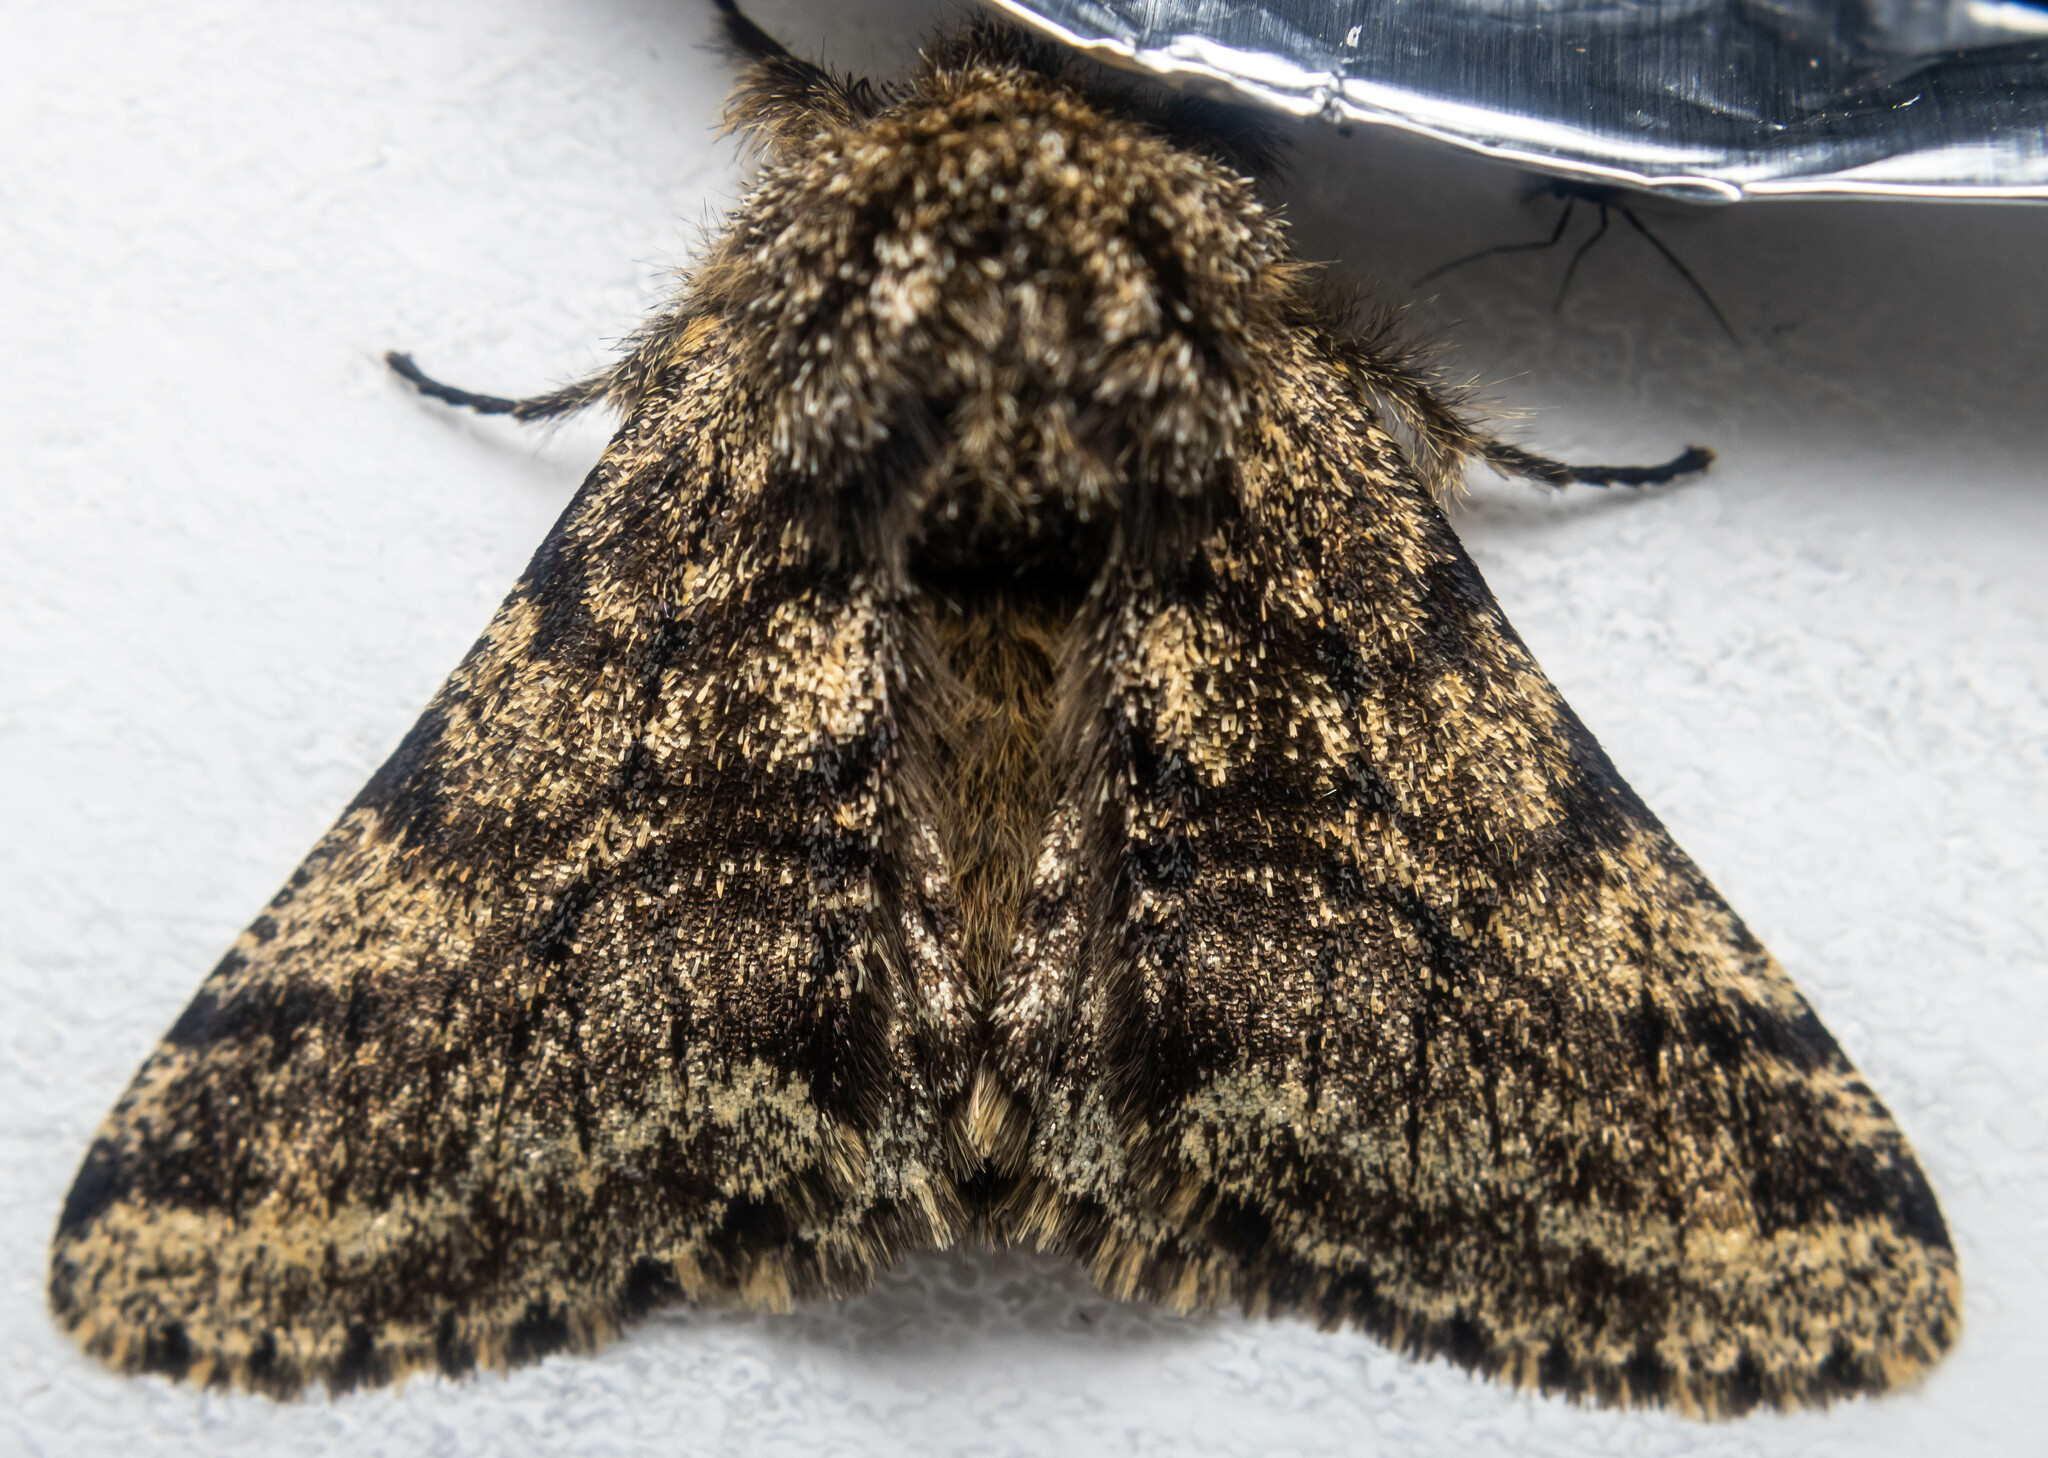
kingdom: Animalia
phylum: Arthropoda
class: Insecta
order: Lepidoptera
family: Geometridae
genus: Lycia
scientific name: Lycia hirtaria
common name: Brindled beauty
